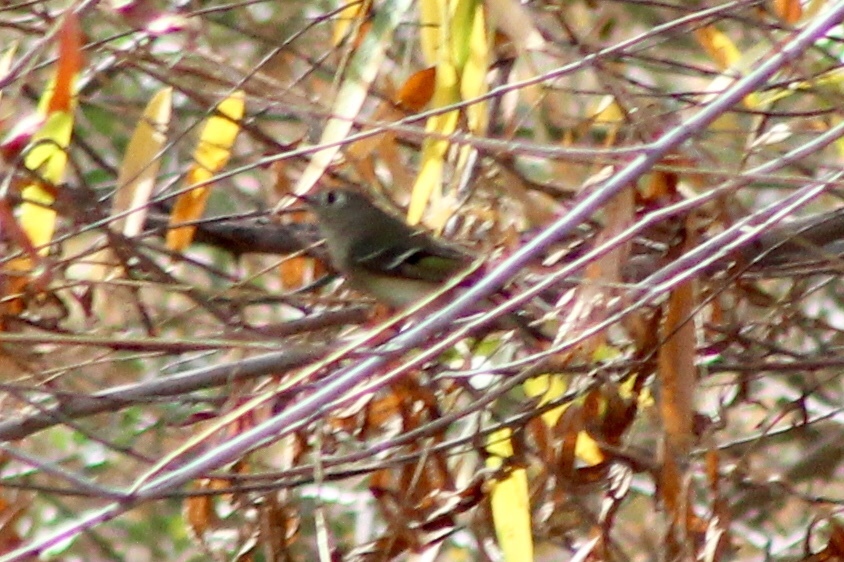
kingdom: Animalia
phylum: Chordata
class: Aves
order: Passeriformes
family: Regulidae
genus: Regulus
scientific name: Regulus calendula
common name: Ruby-crowned kinglet
